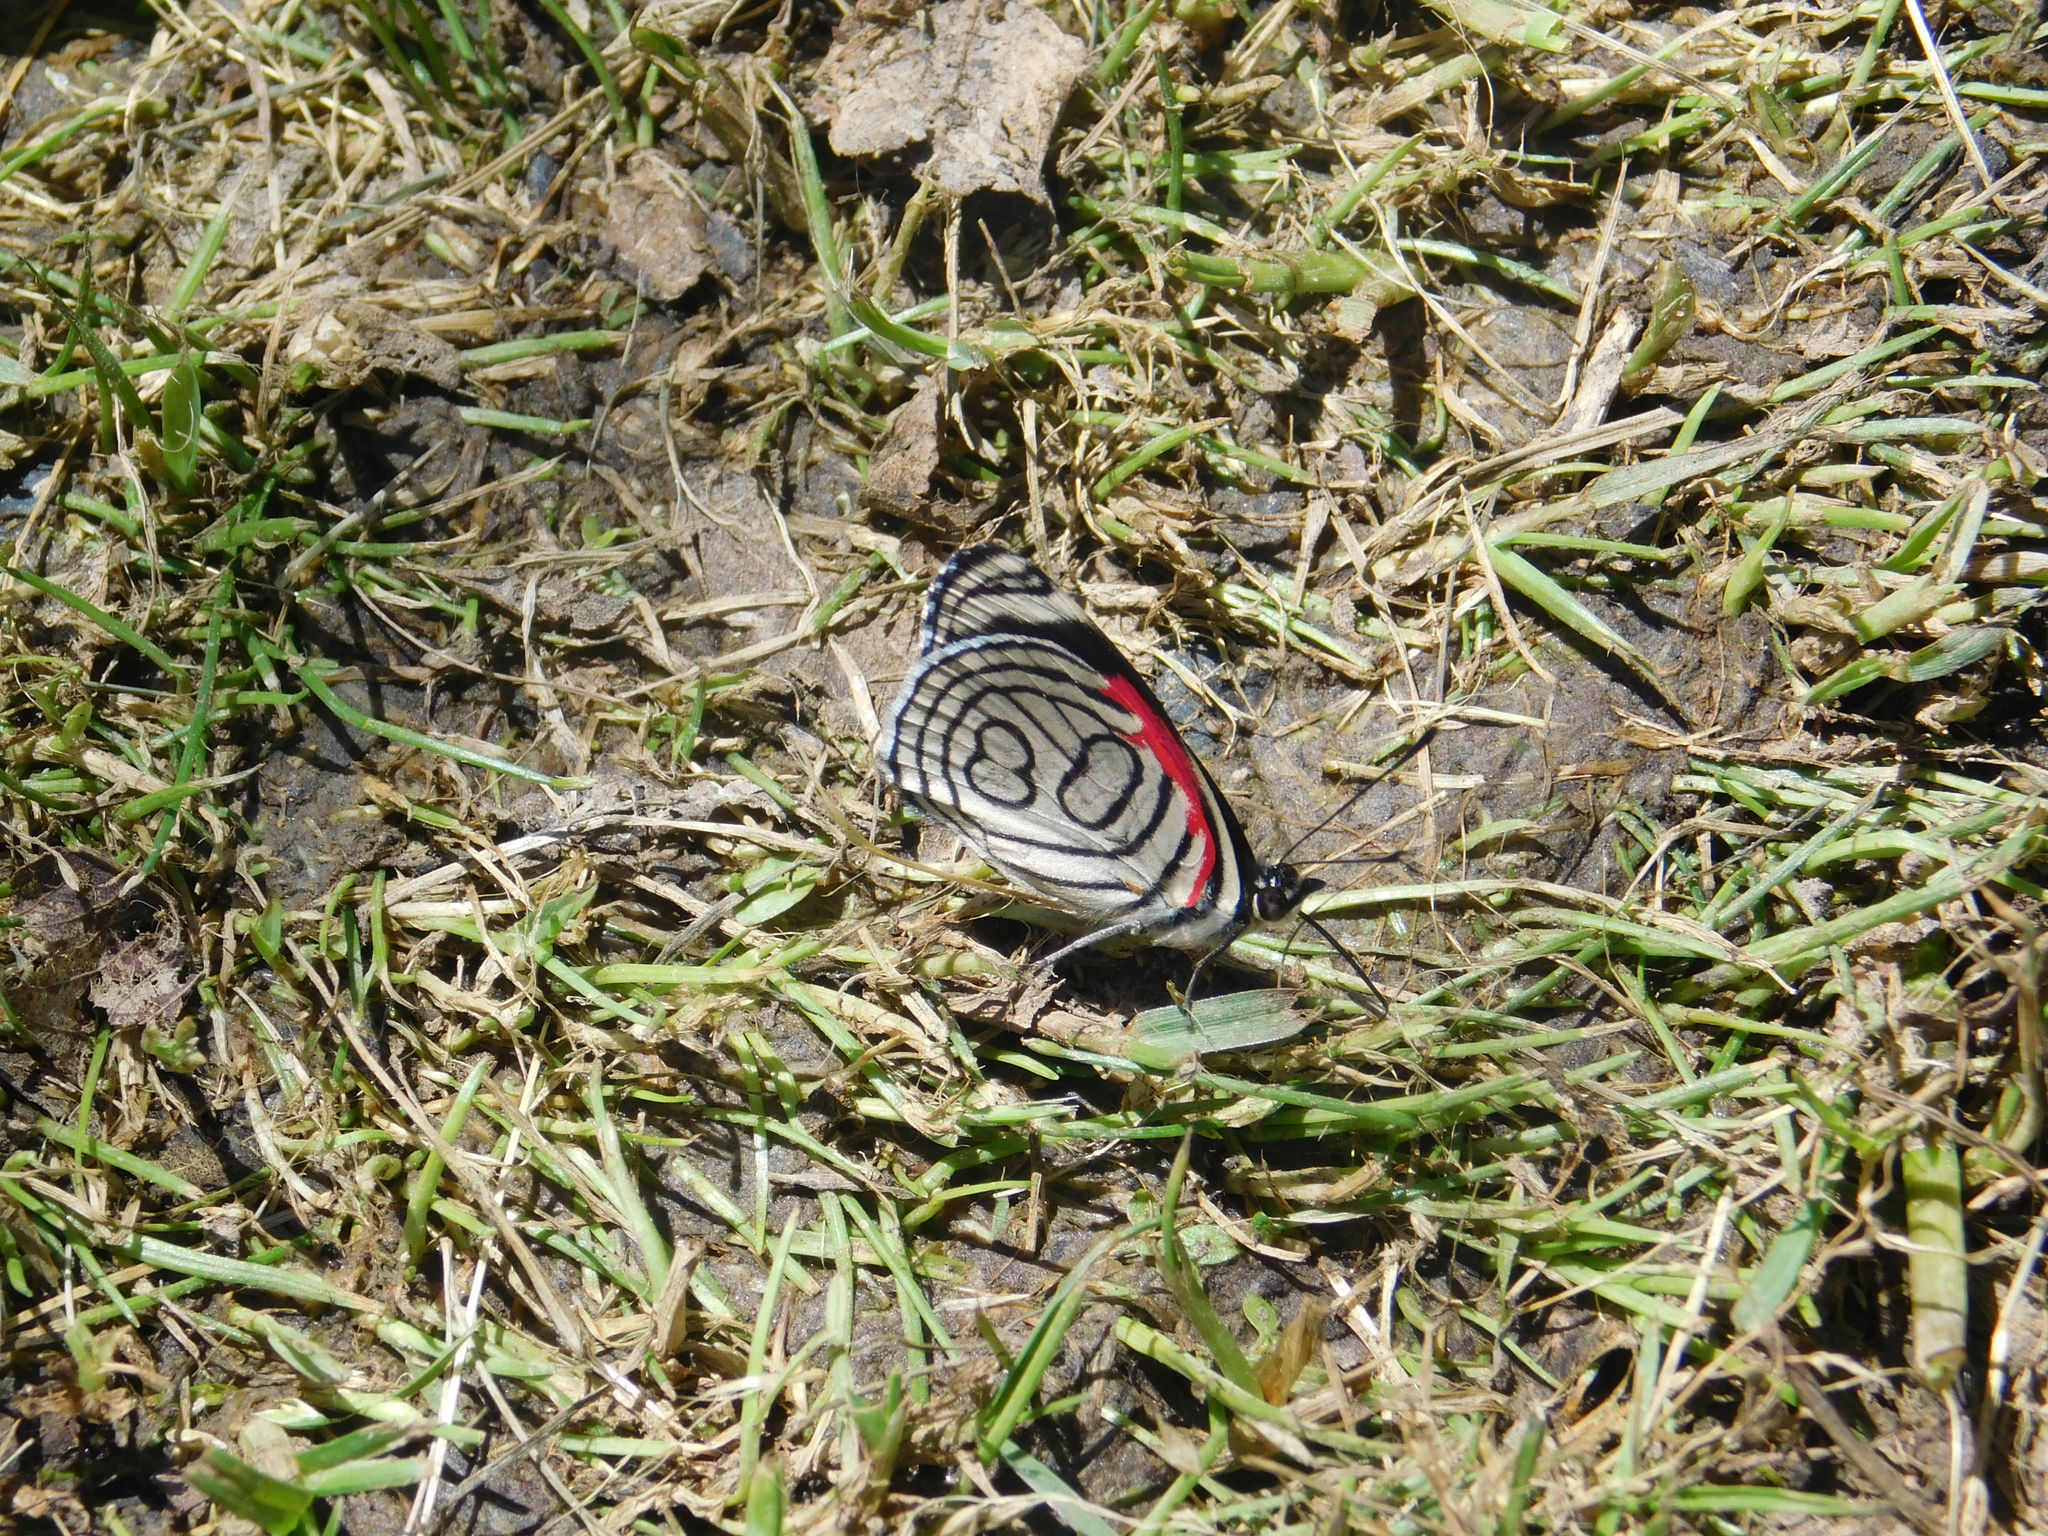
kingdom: Animalia
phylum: Arthropoda
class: Insecta
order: Lepidoptera
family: Nymphalidae
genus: Diaethria
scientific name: Diaethria candrena
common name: Number eighty
